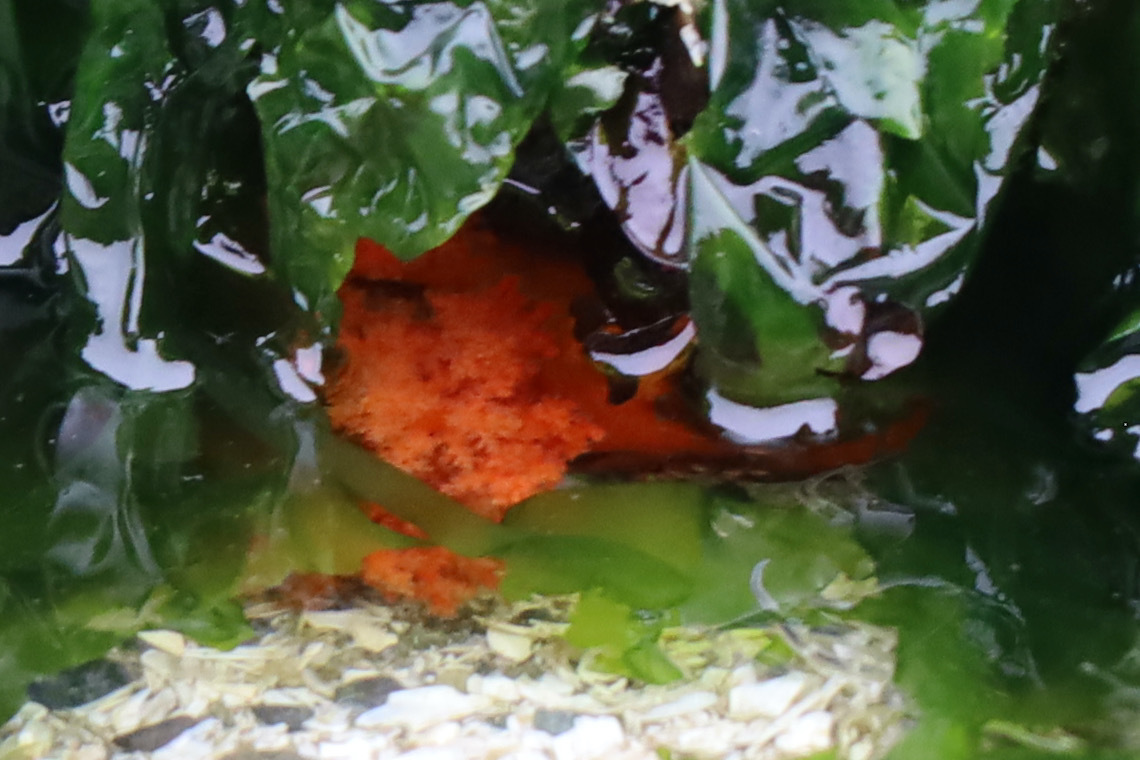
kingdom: Animalia
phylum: Echinodermata
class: Holothuroidea
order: Dendrochirotida
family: Cucumariidae
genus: Cucumaria
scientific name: Cucumaria miniata
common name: Orange sea cucumber
